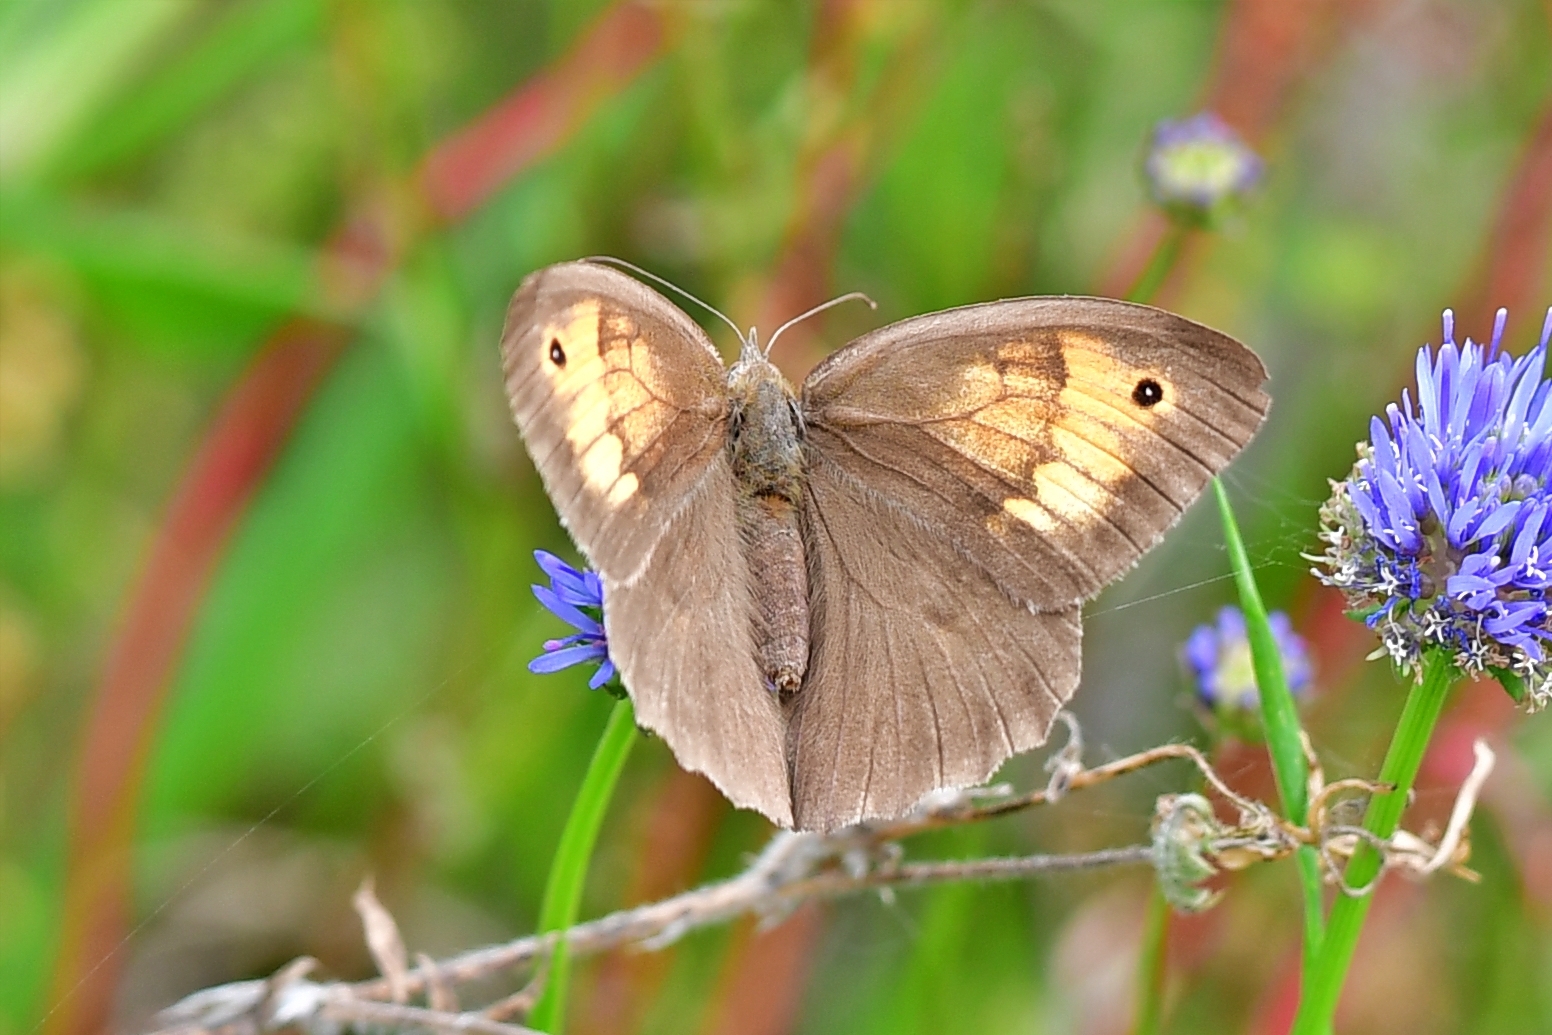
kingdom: Animalia
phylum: Arthropoda
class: Insecta
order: Lepidoptera
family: Nymphalidae
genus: Maniola
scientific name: Maniola jurtina
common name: Meadow brown
